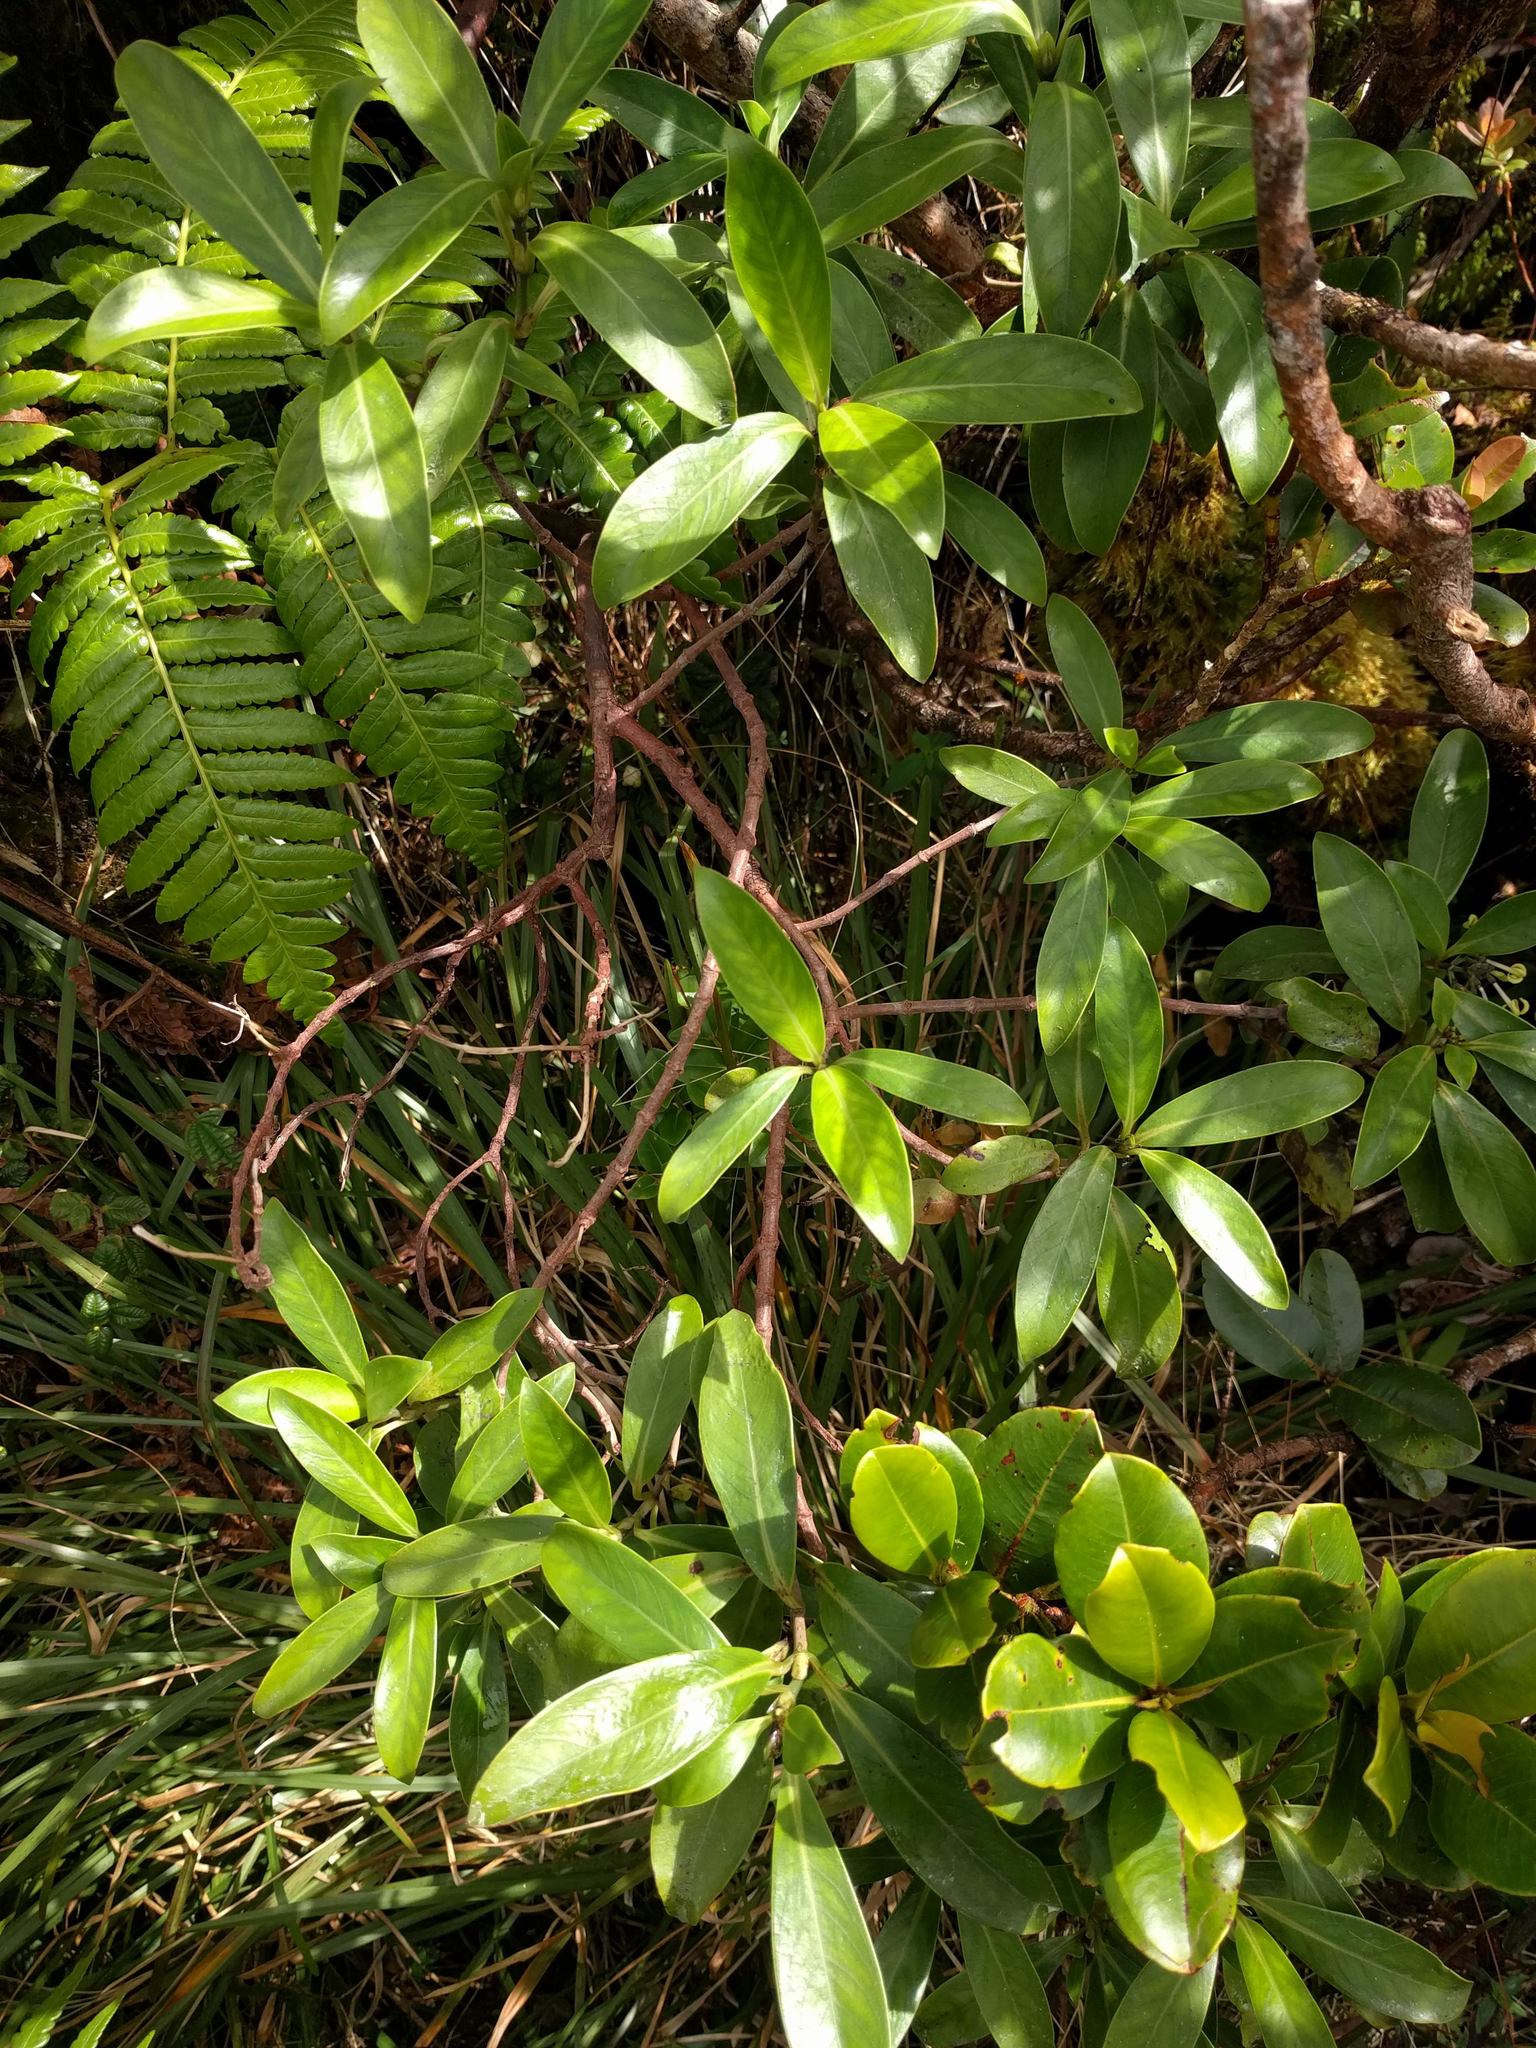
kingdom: Plantae
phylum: Tracheophyta
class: Magnoliopsida
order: Gentianales
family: Rubiaceae
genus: Kadua
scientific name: Kadua affinis
